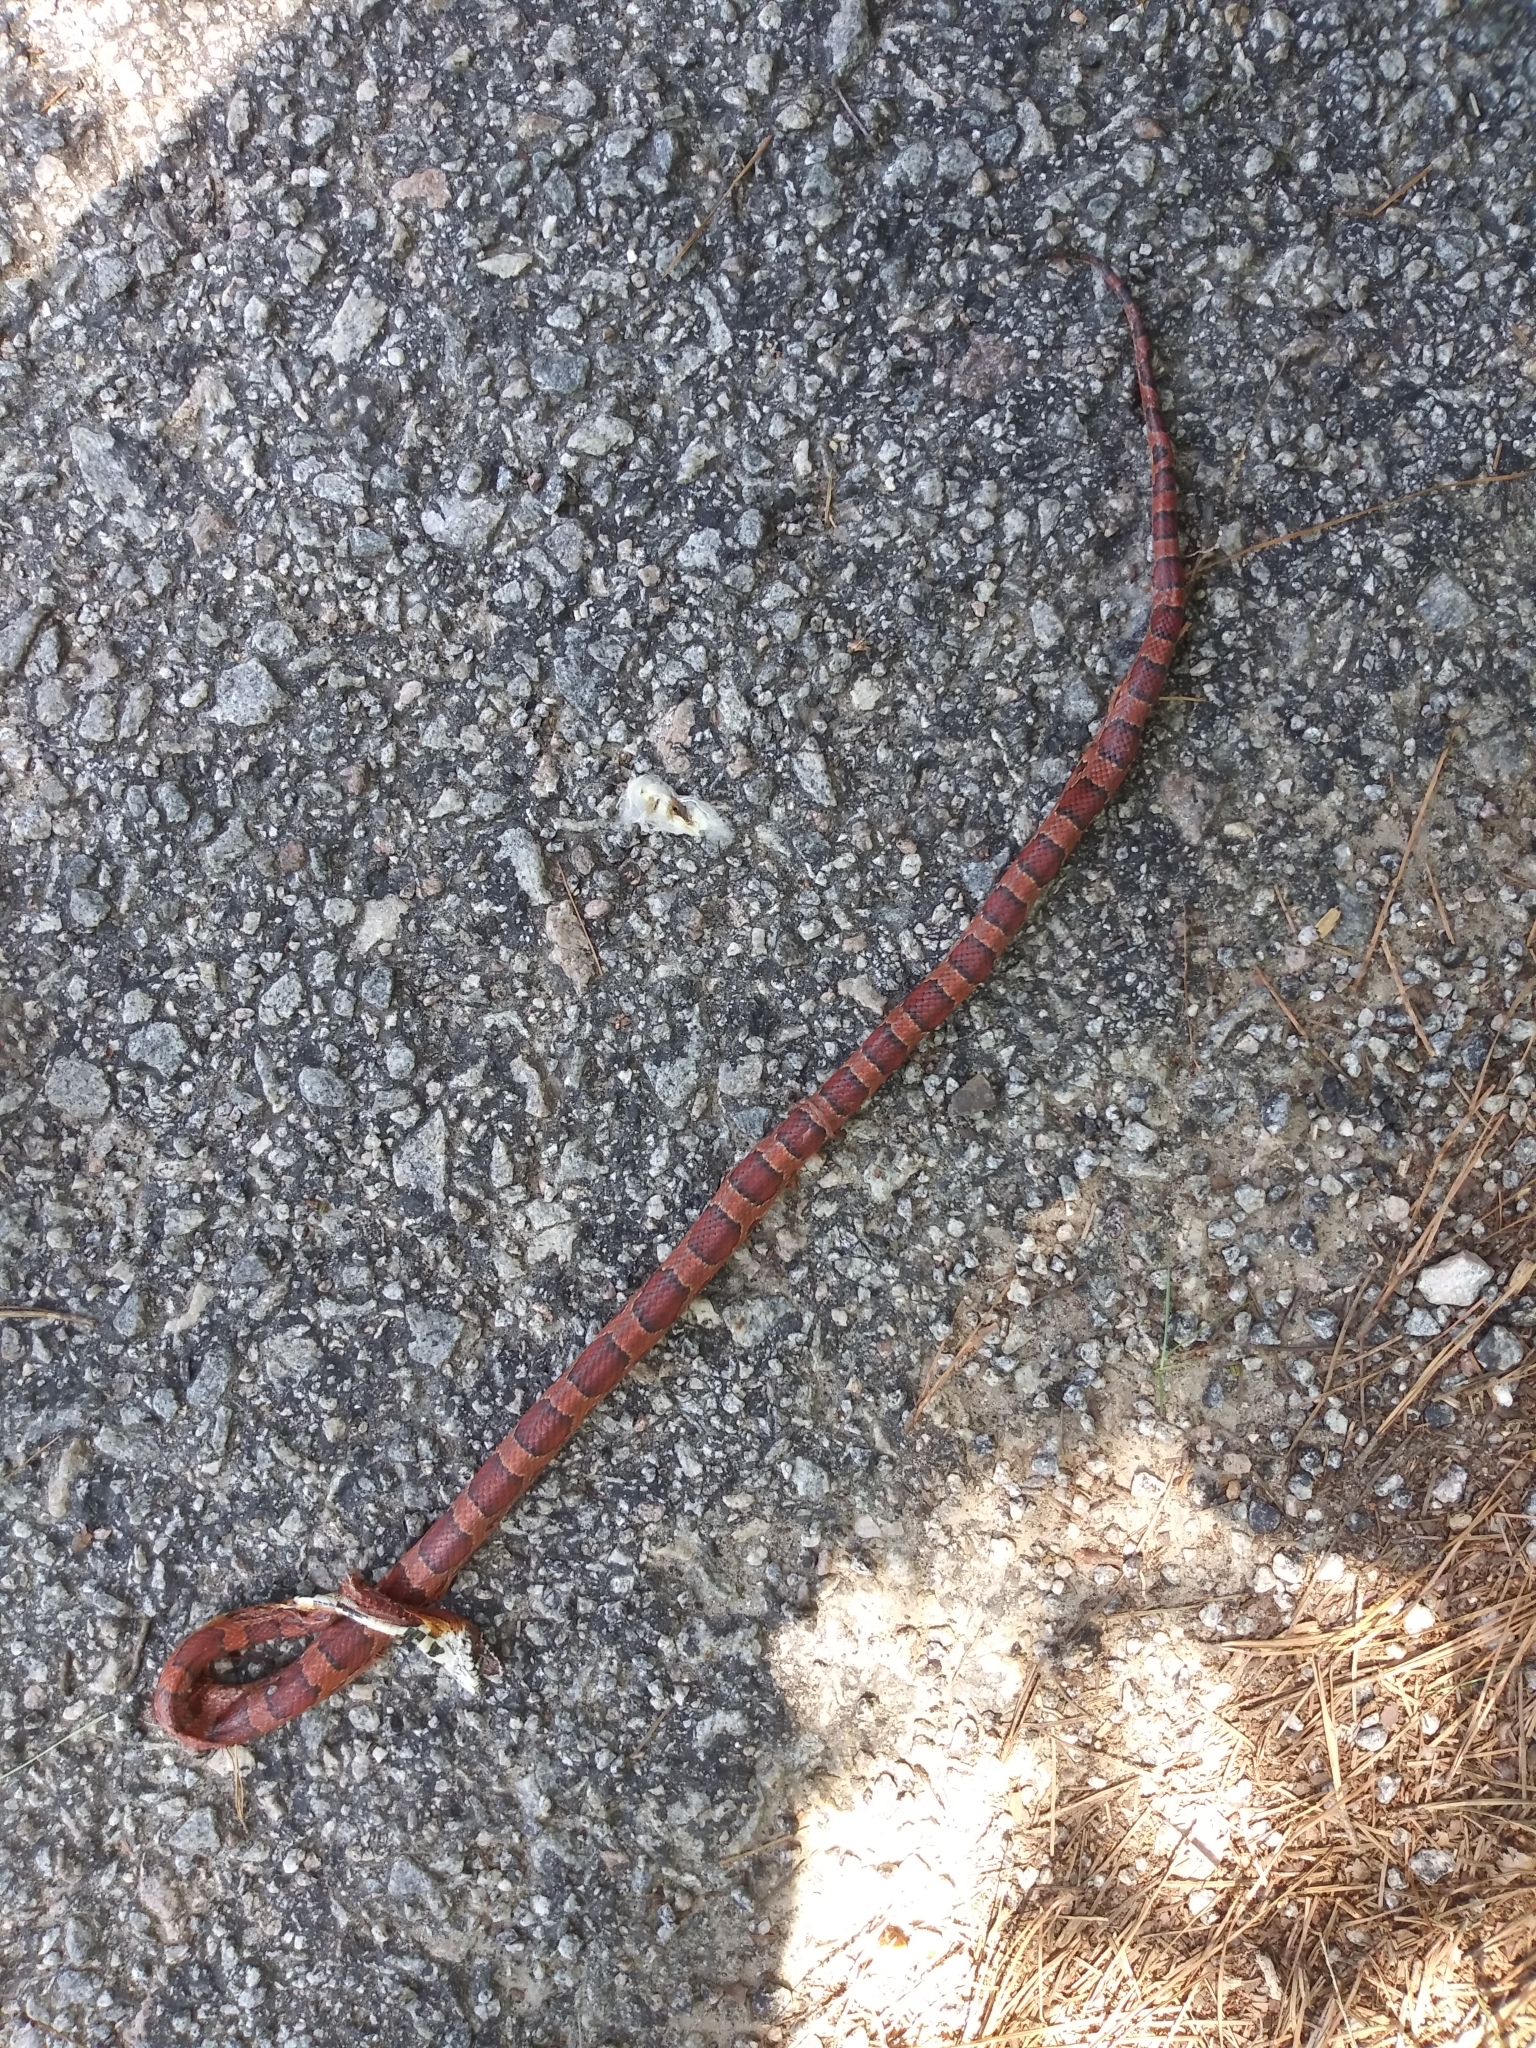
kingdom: Animalia
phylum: Chordata
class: Squamata
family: Colubridae
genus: Pantherophis
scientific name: Pantherophis guttatus
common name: Red cornsnake
